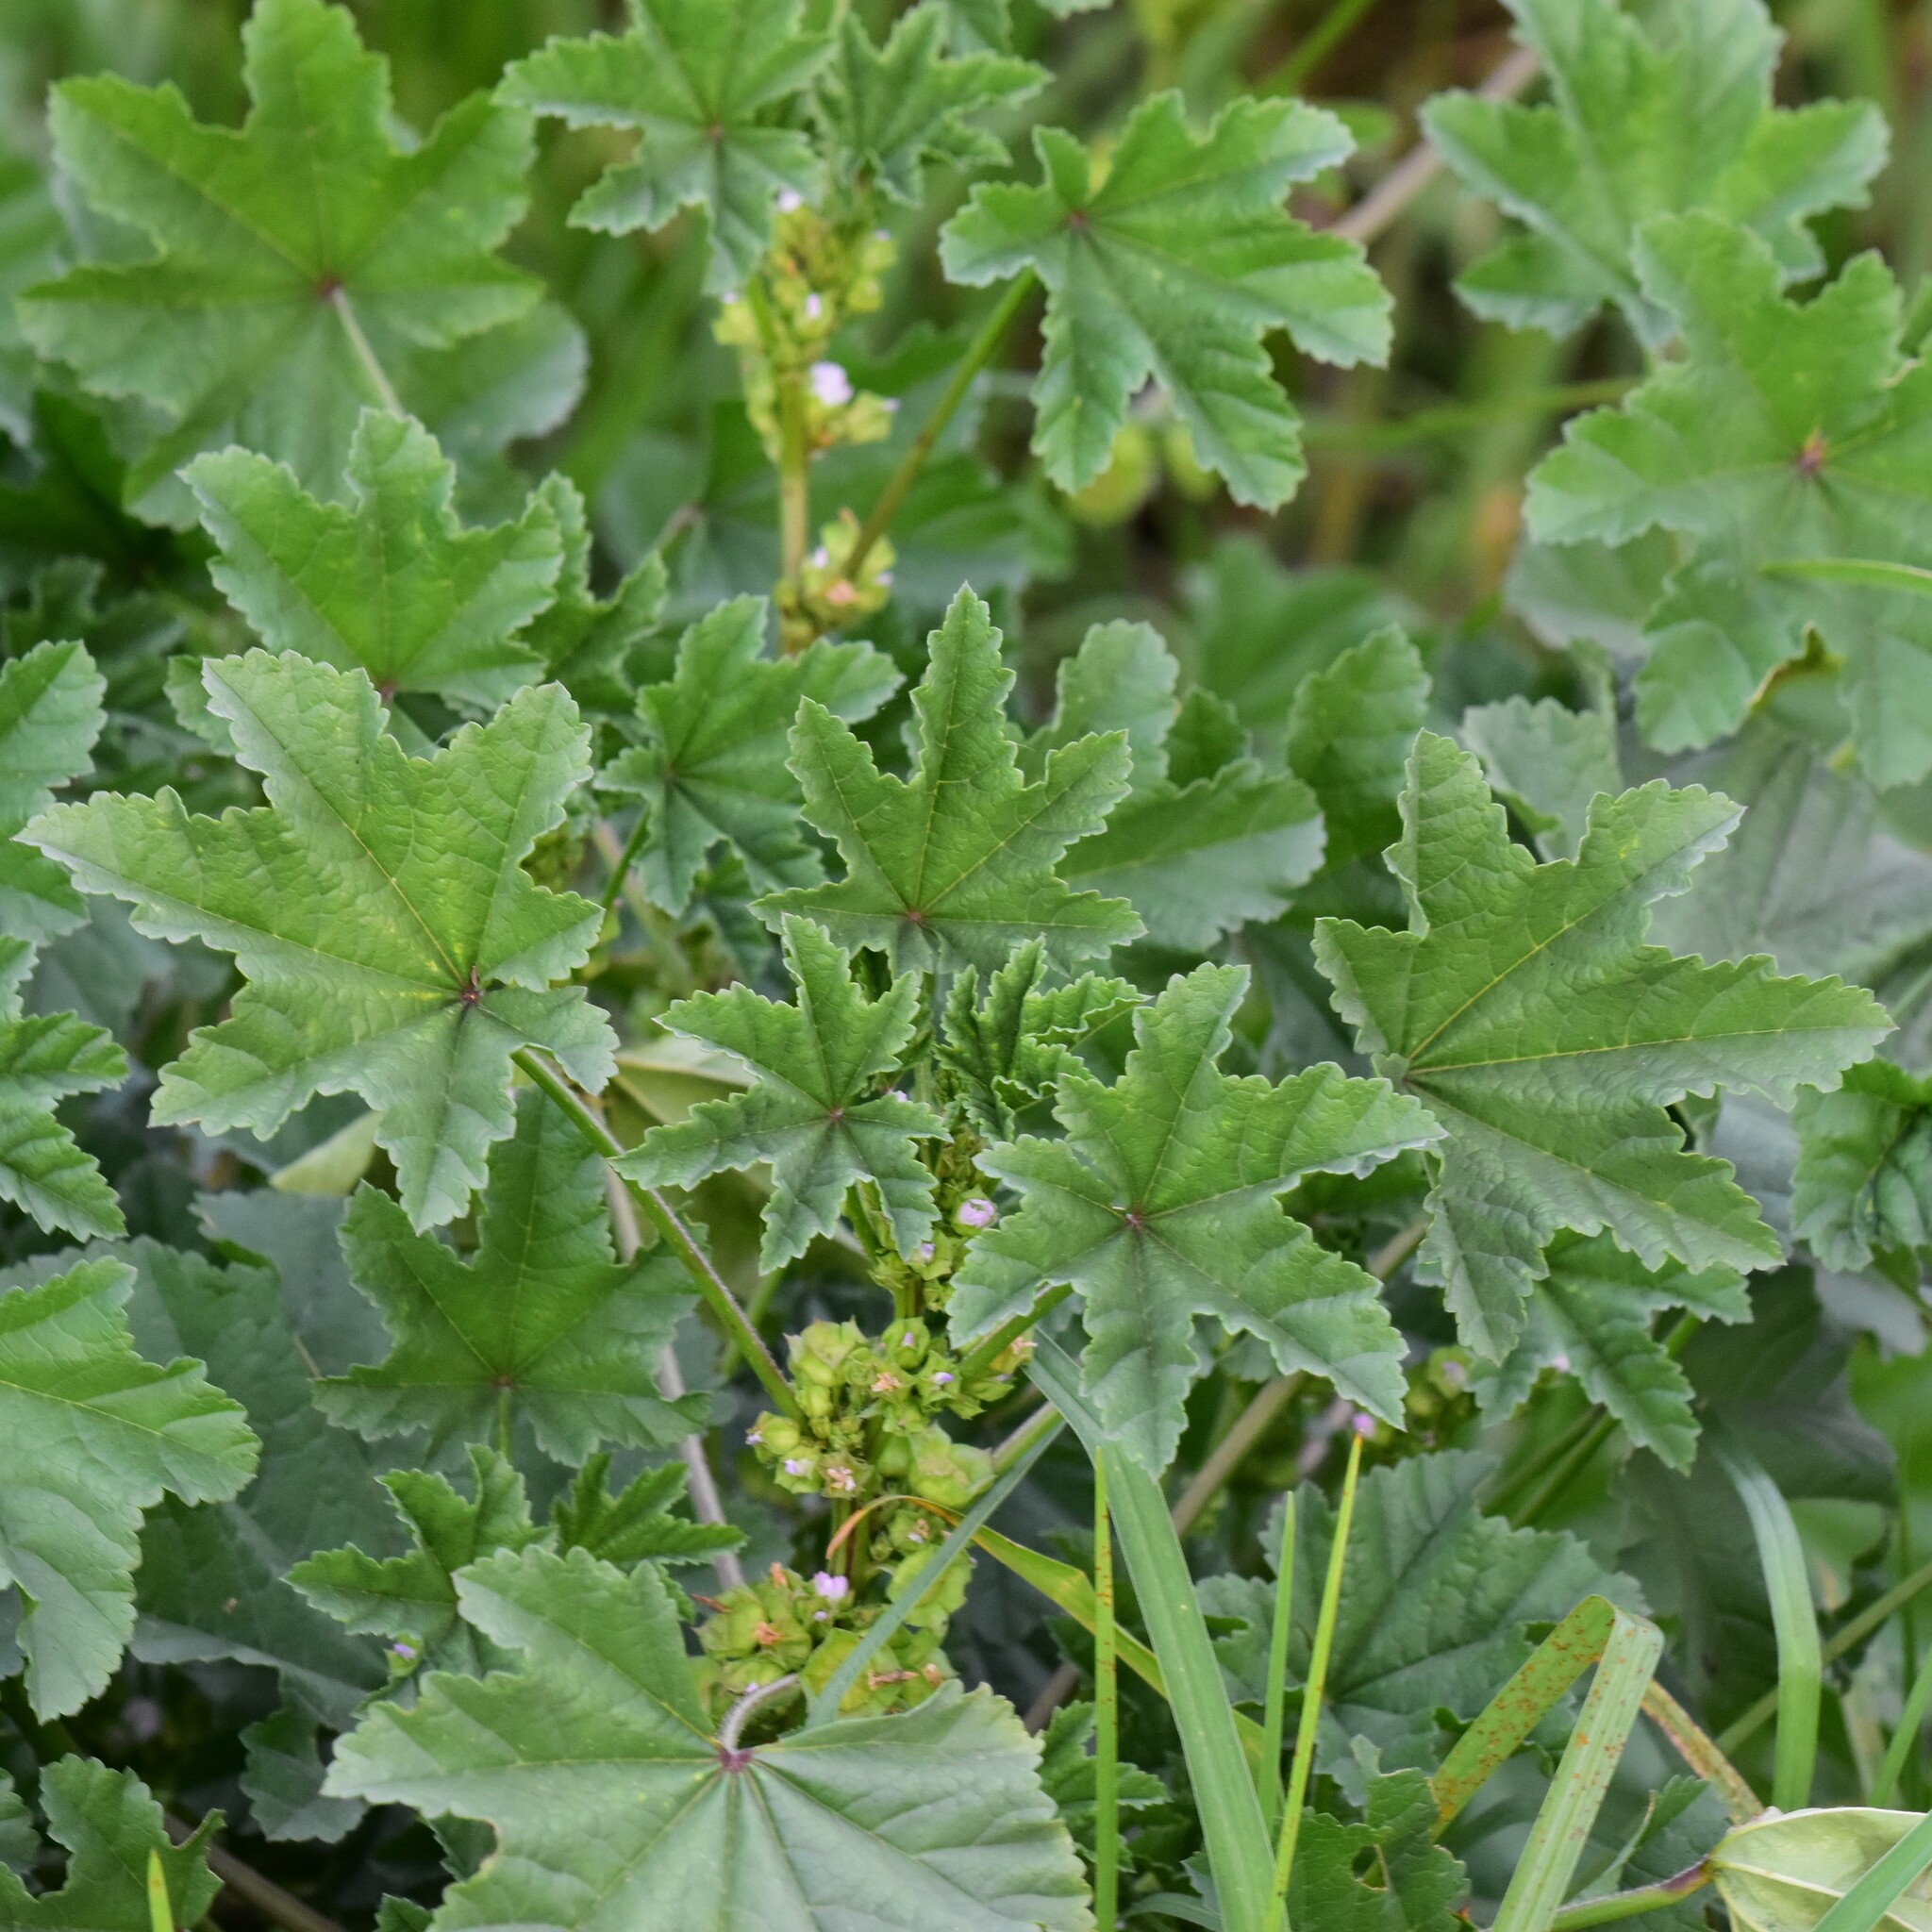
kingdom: Plantae
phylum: Tracheophyta
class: Magnoliopsida
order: Malvales
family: Malvaceae
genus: Malva
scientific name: Malva parviflora
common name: Least mallow
